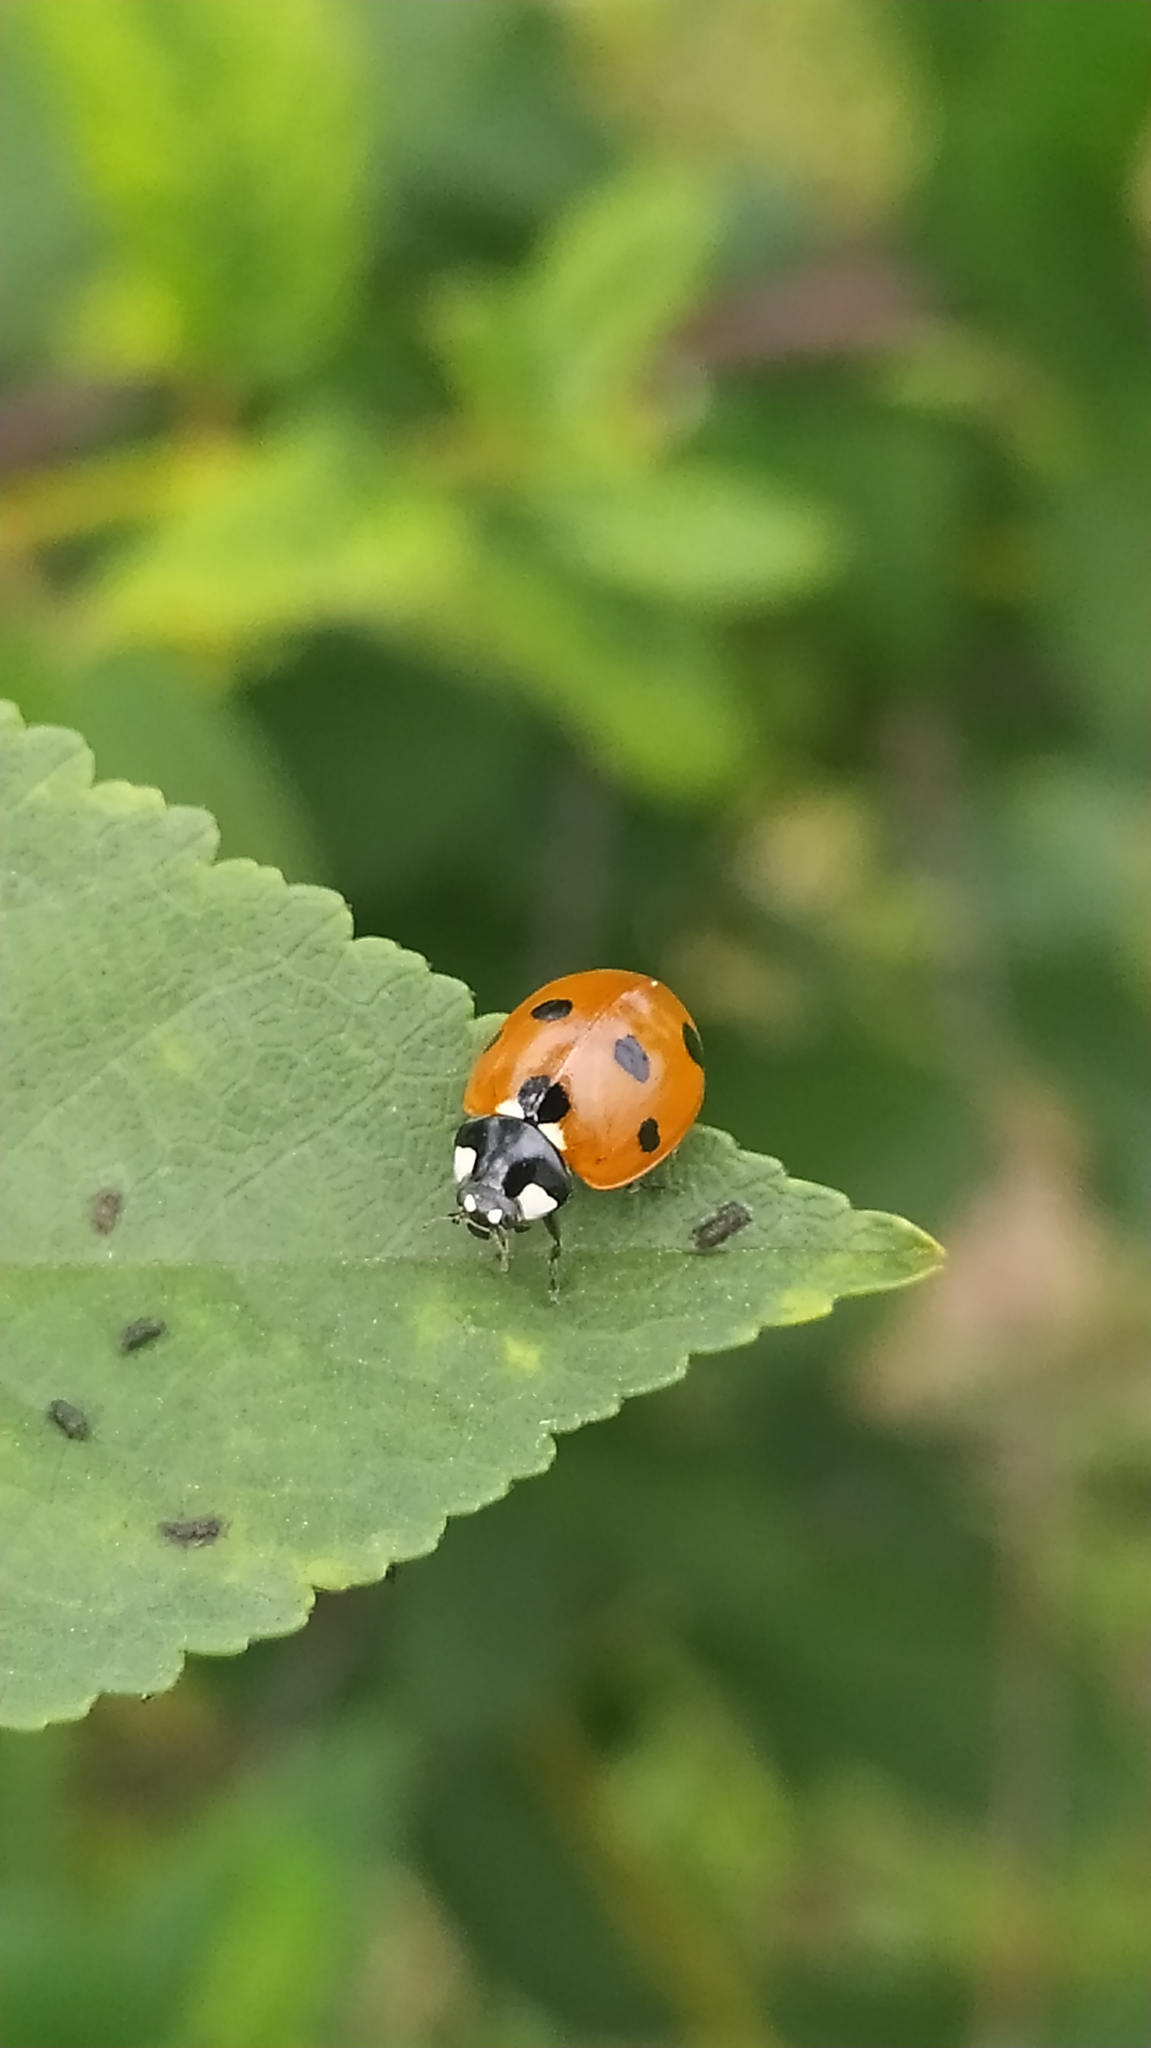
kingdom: Animalia
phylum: Arthropoda
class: Insecta
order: Coleoptera
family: Coccinellidae
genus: Coccinella
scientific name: Coccinella septempunctata
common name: Sevenspotted lady beetle
